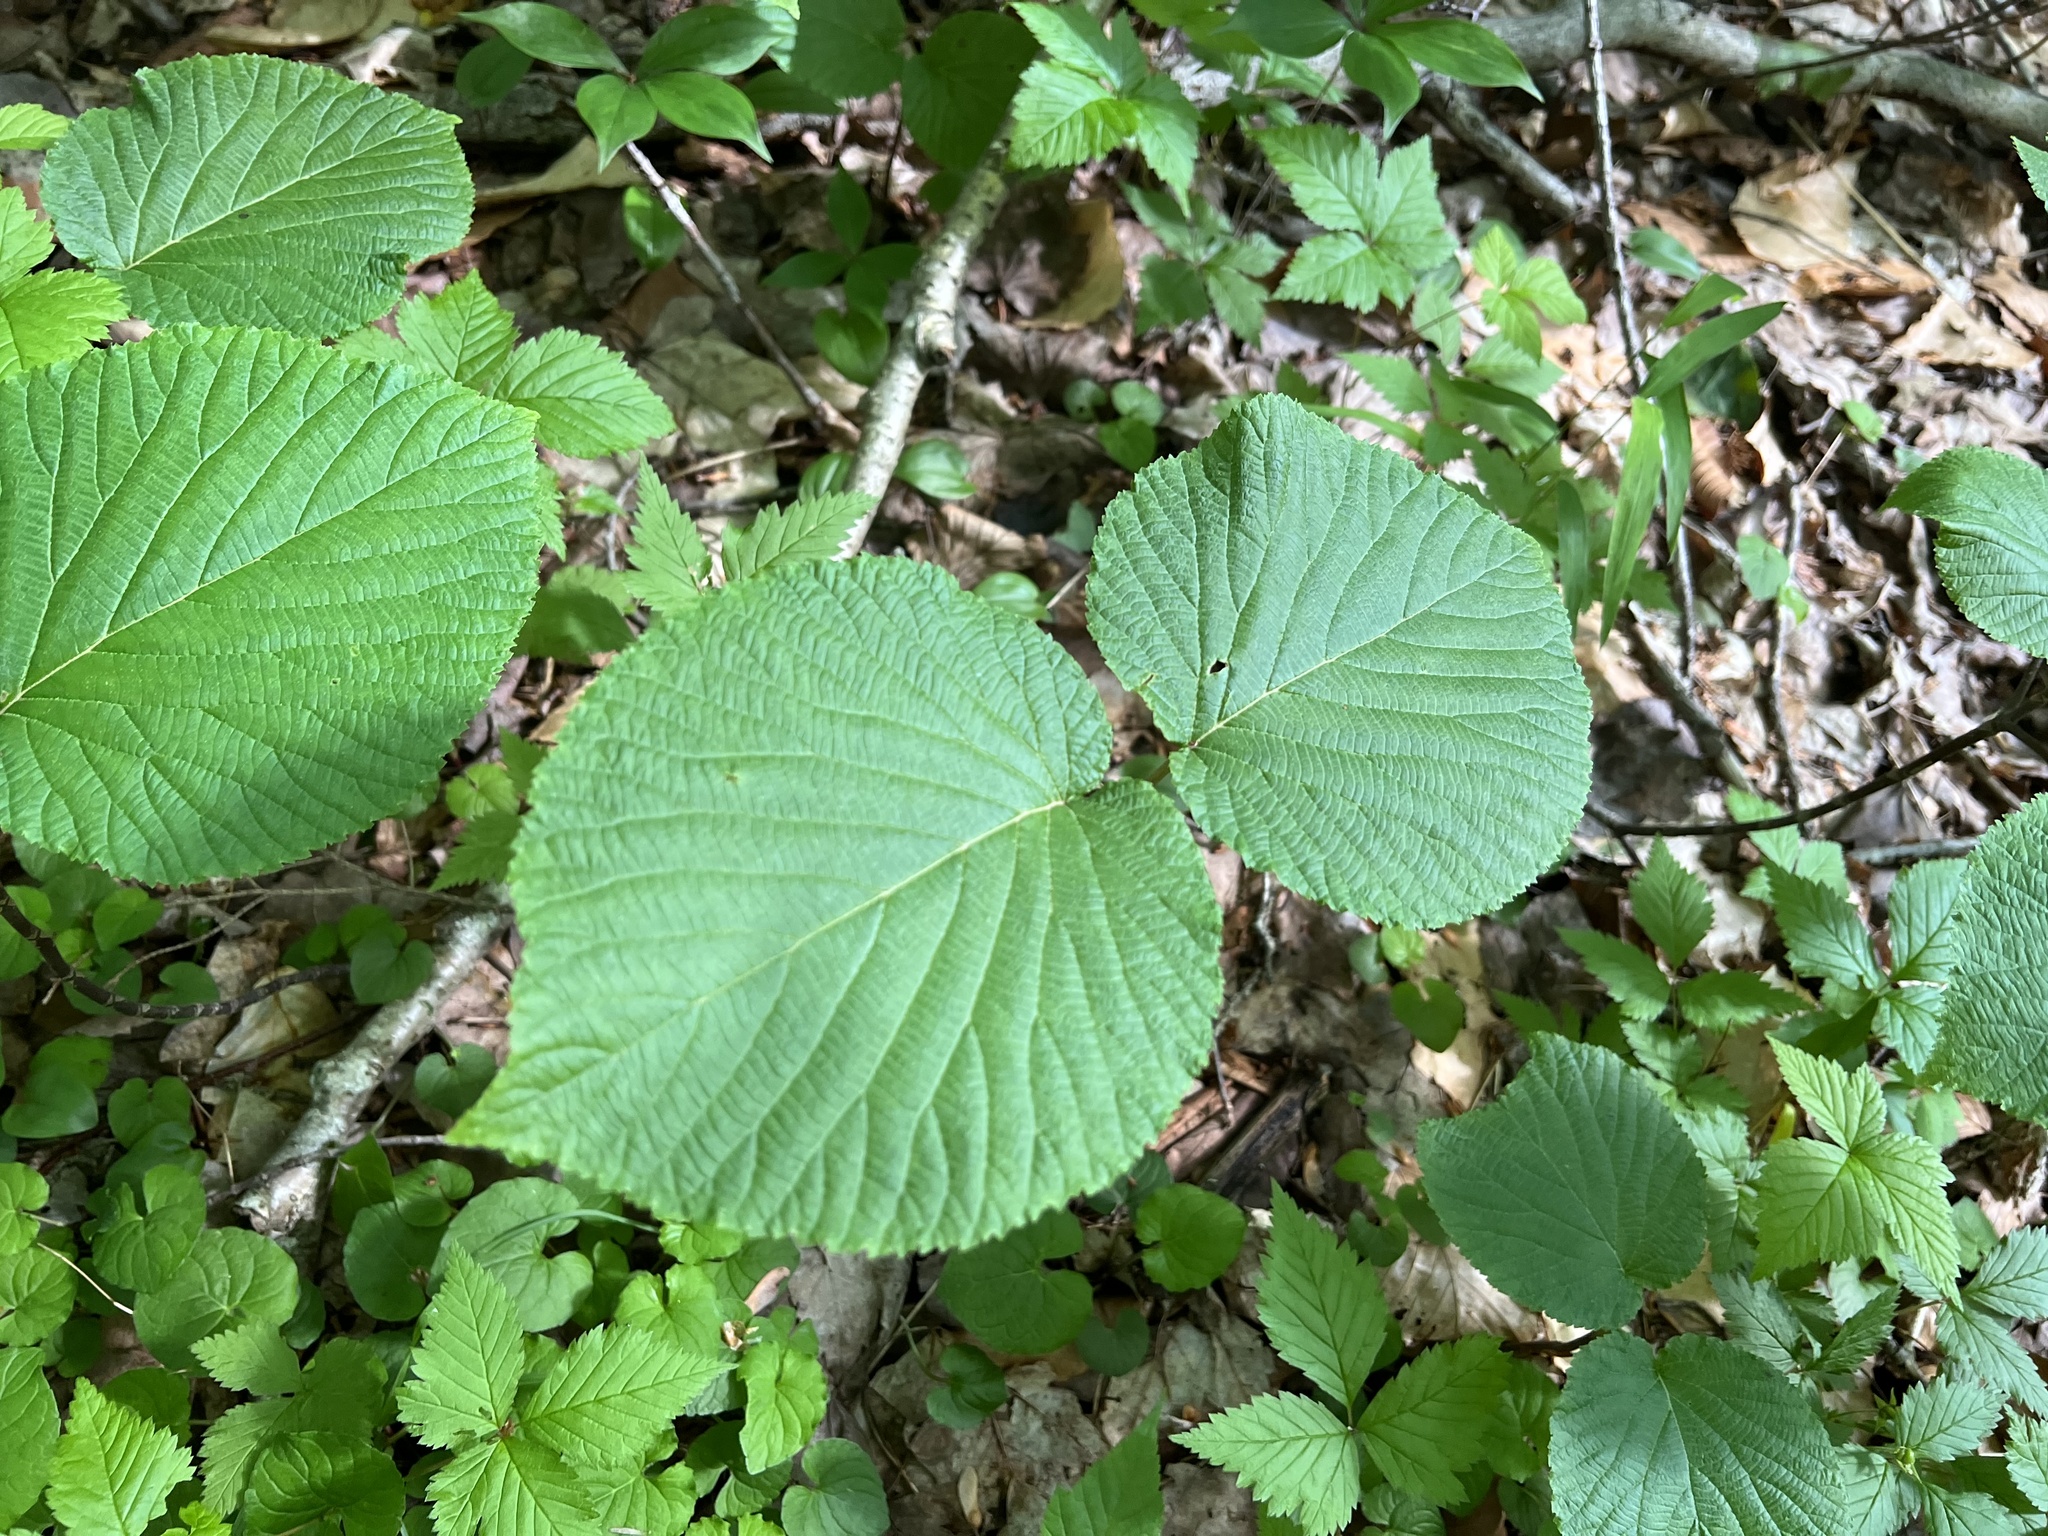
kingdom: Plantae
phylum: Tracheophyta
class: Magnoliopsida
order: Dipsacales
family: Viburnaceae
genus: Viburnum
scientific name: Viburnum lantanoides
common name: Hobblebush
